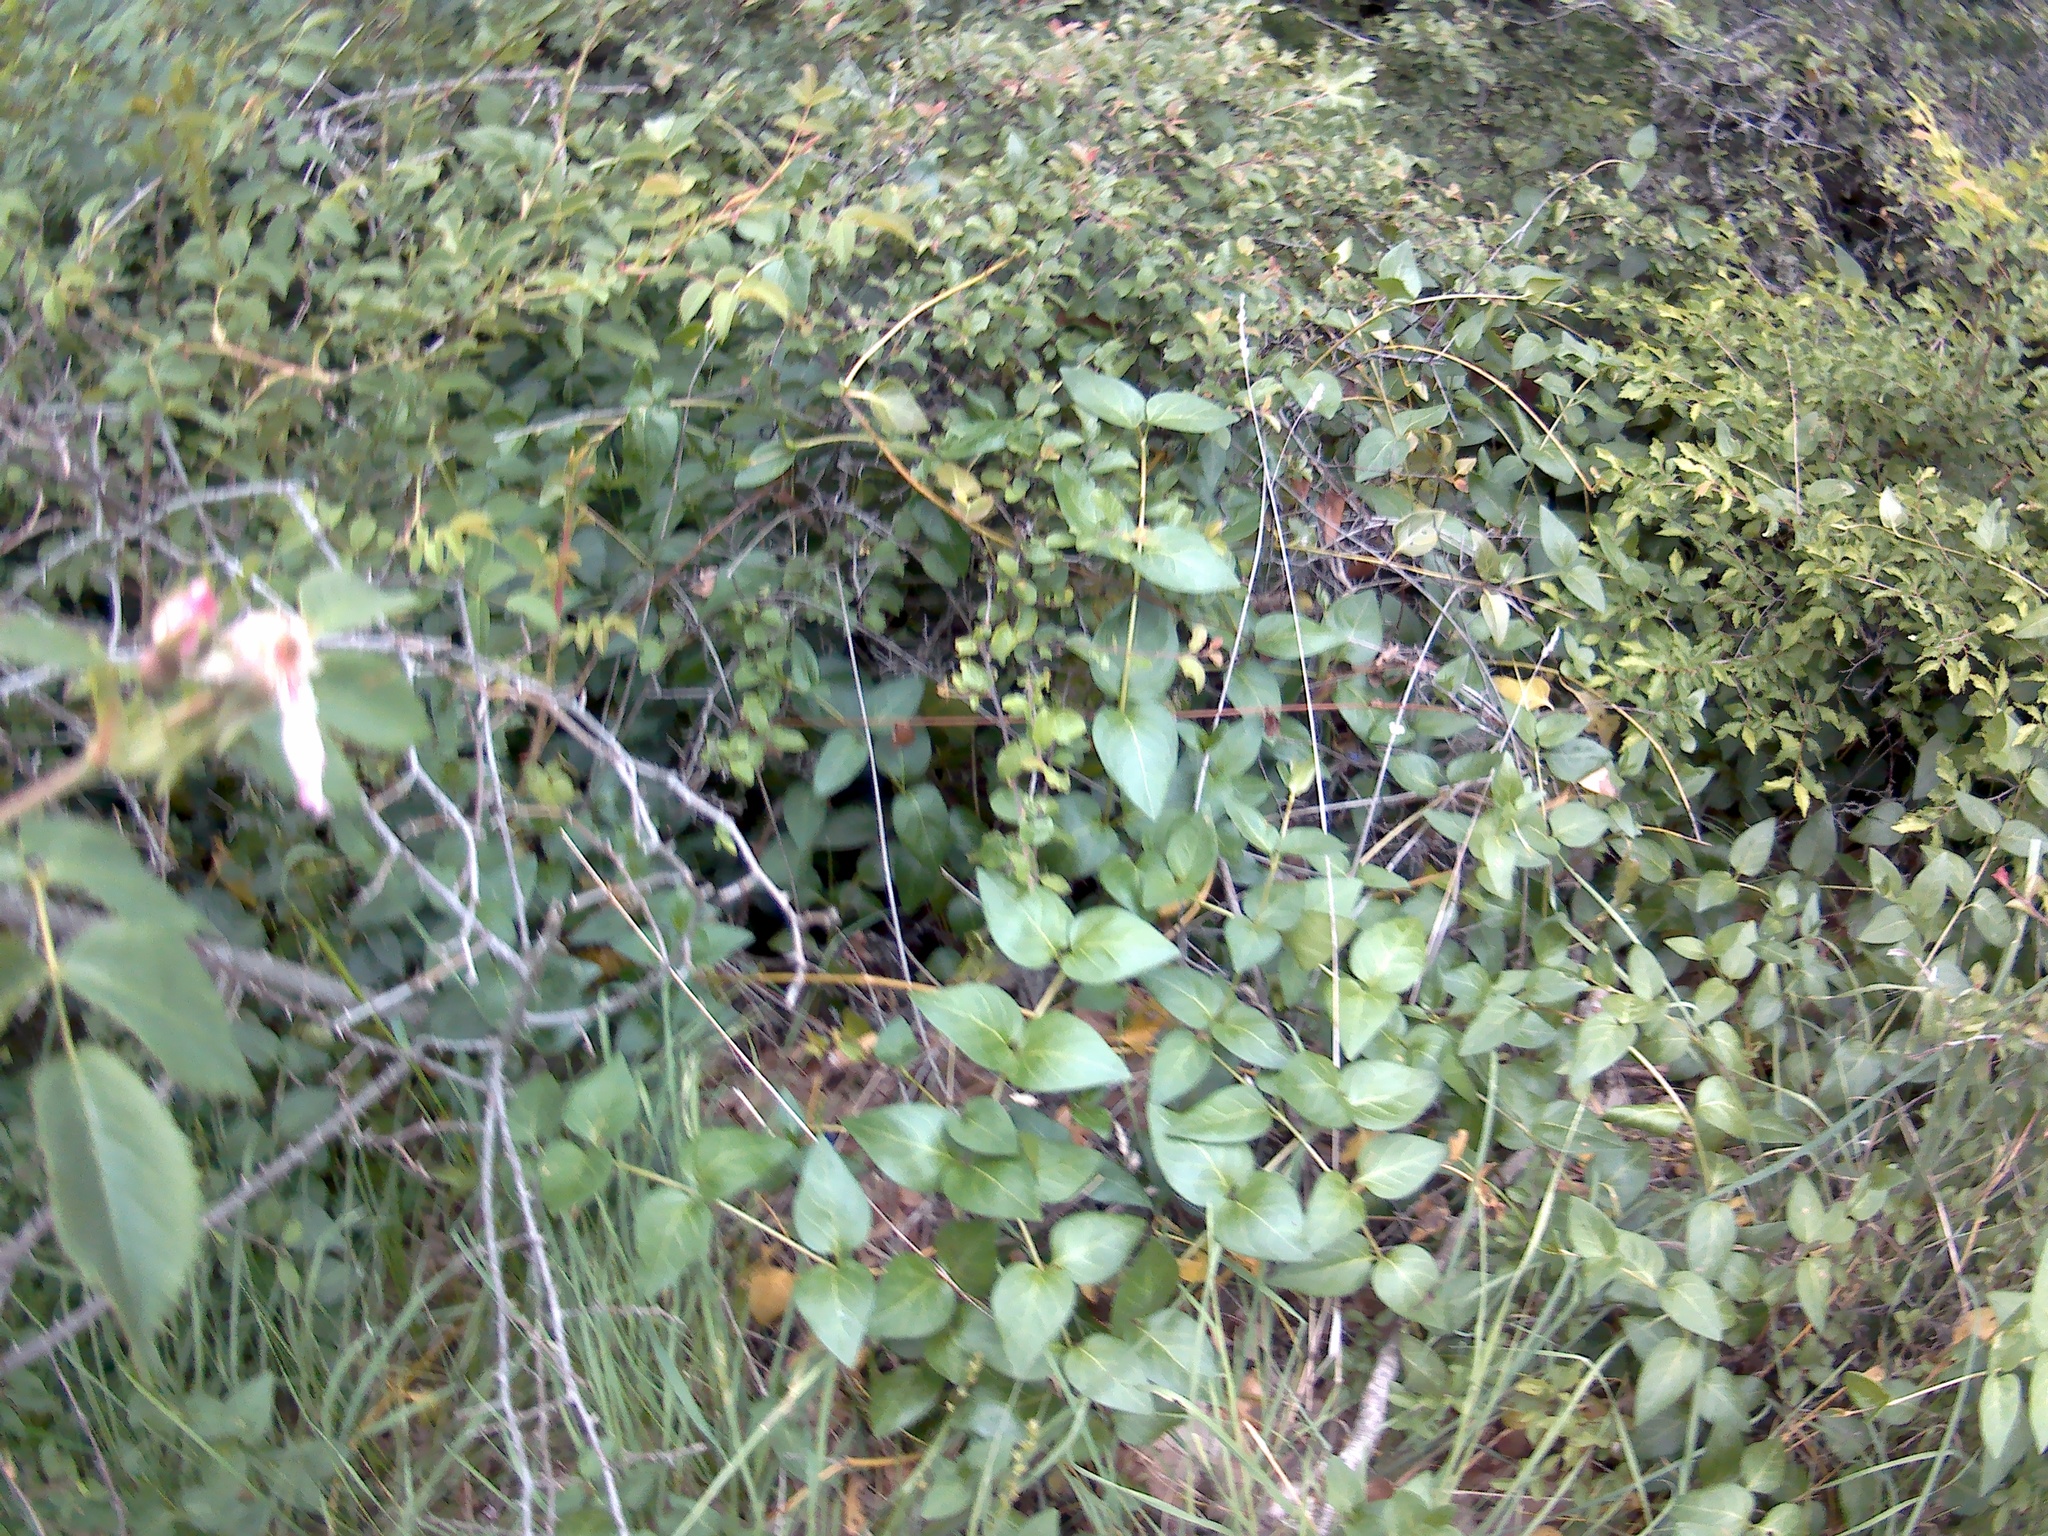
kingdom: Plantae
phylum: Tracheophyta
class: Magnoliopsida
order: Gentianales
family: Apocynaceae
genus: Vinca
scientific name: Vinca major
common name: Greater periwinkle
